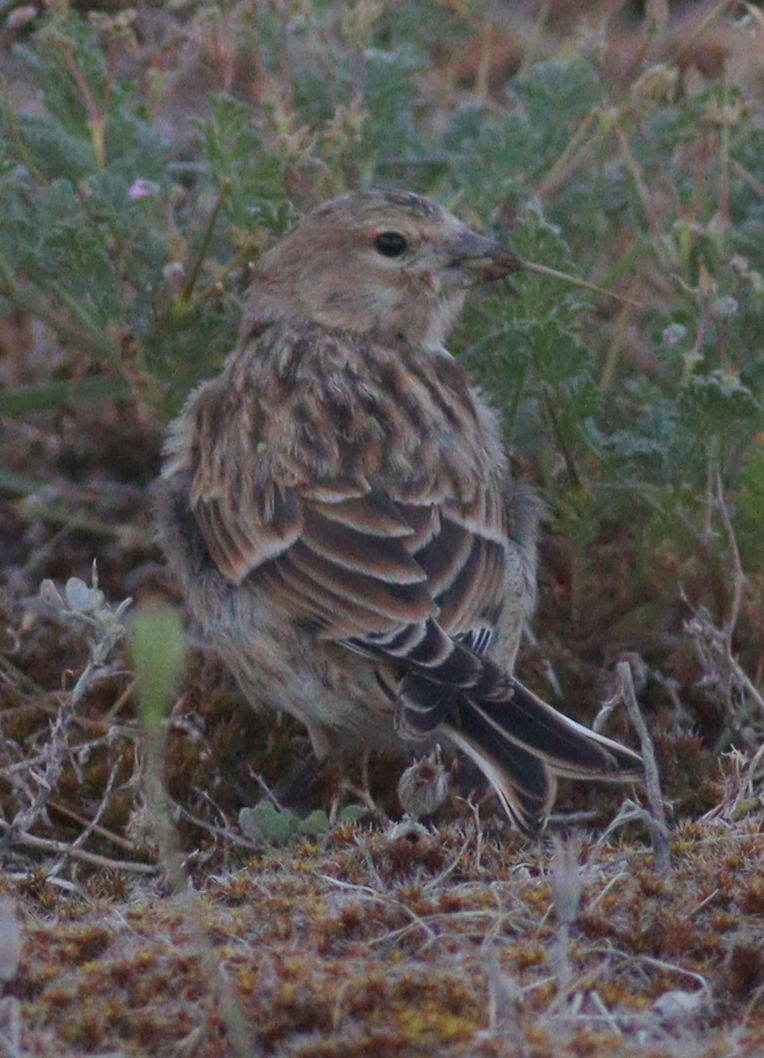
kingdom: Animalia
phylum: Chordata
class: Aves
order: Passeriformes
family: Fringillidae
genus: Linaria
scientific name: Linaria cannabina
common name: Common linnet
